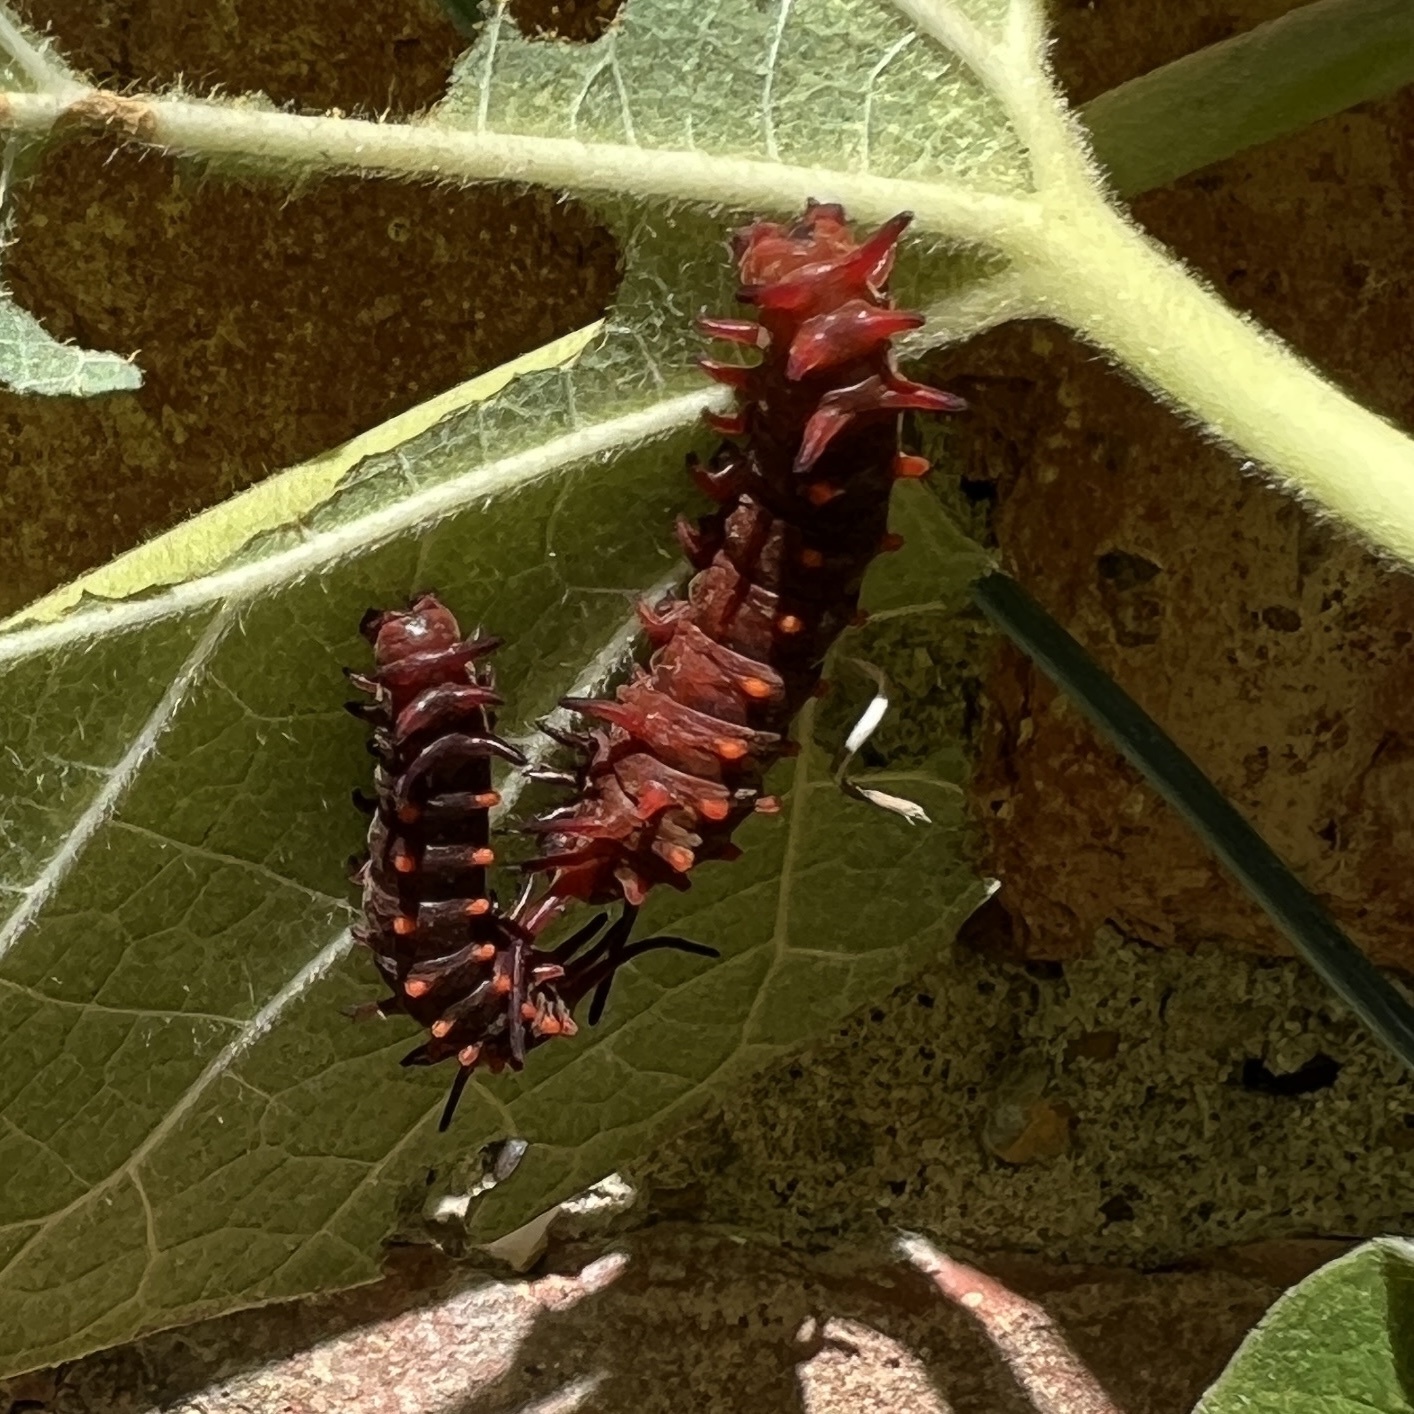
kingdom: Animalia
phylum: Arthropoda
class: Insecta
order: Lepidoptera
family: Papilionidae
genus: Battus
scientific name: Battus philenor
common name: Pipevine swallowtail
